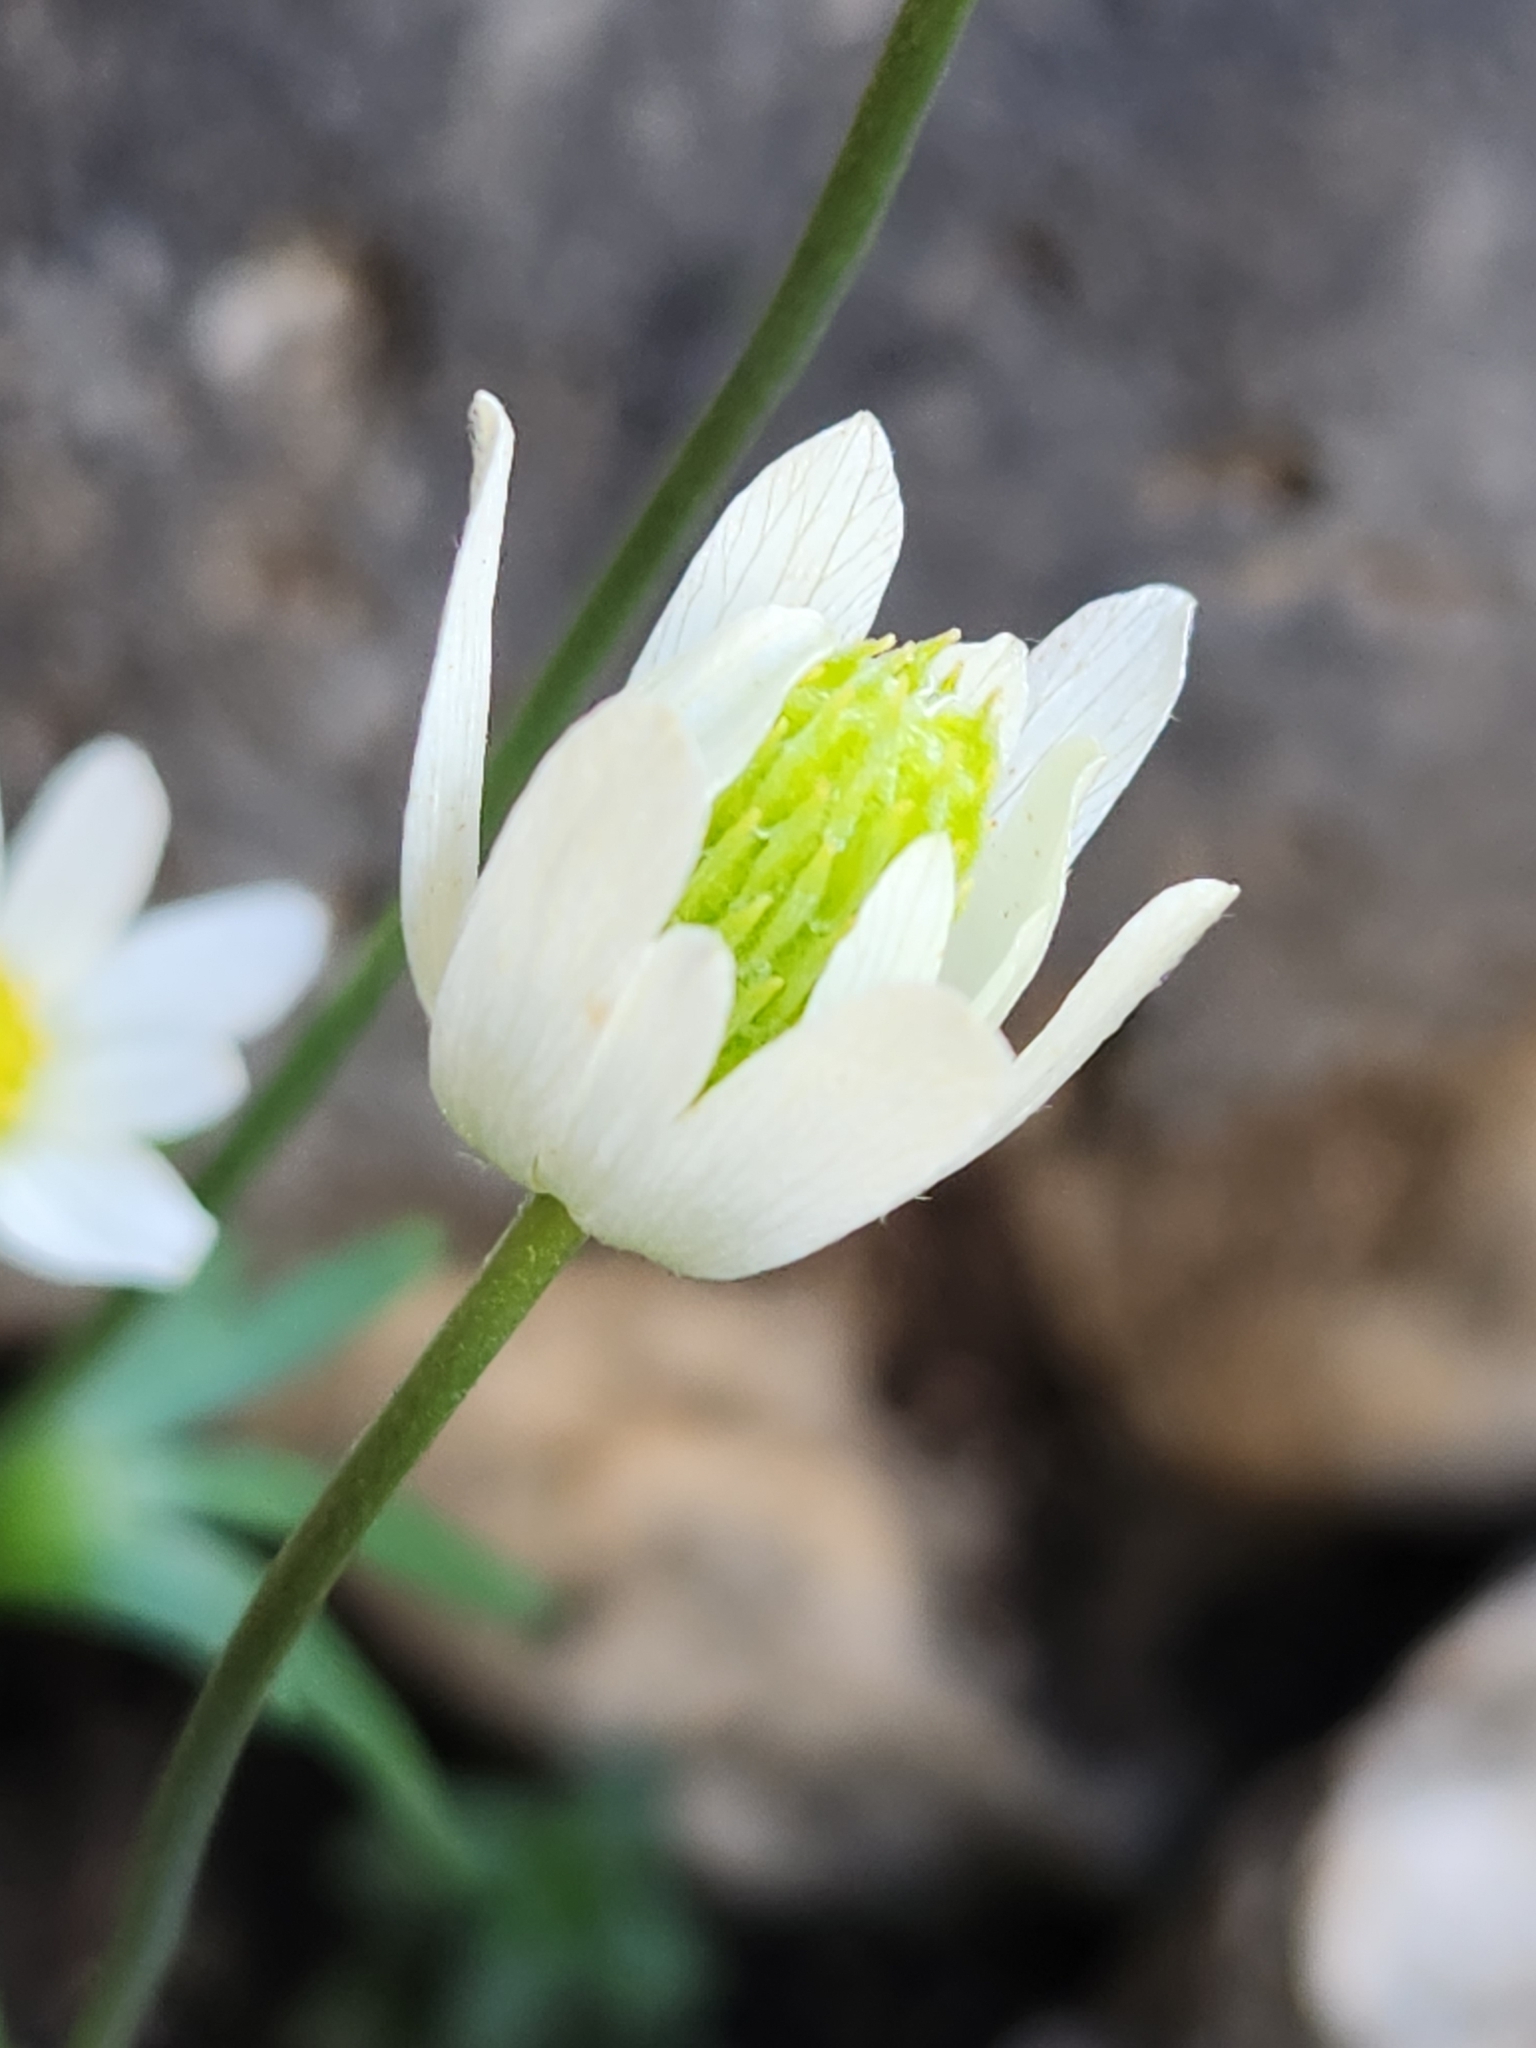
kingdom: Plantae
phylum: Tracheophyta
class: Magnoliopsida
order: Ranunculales
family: Ranunculaceae
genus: Anemone
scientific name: Anemone edwardsiana
